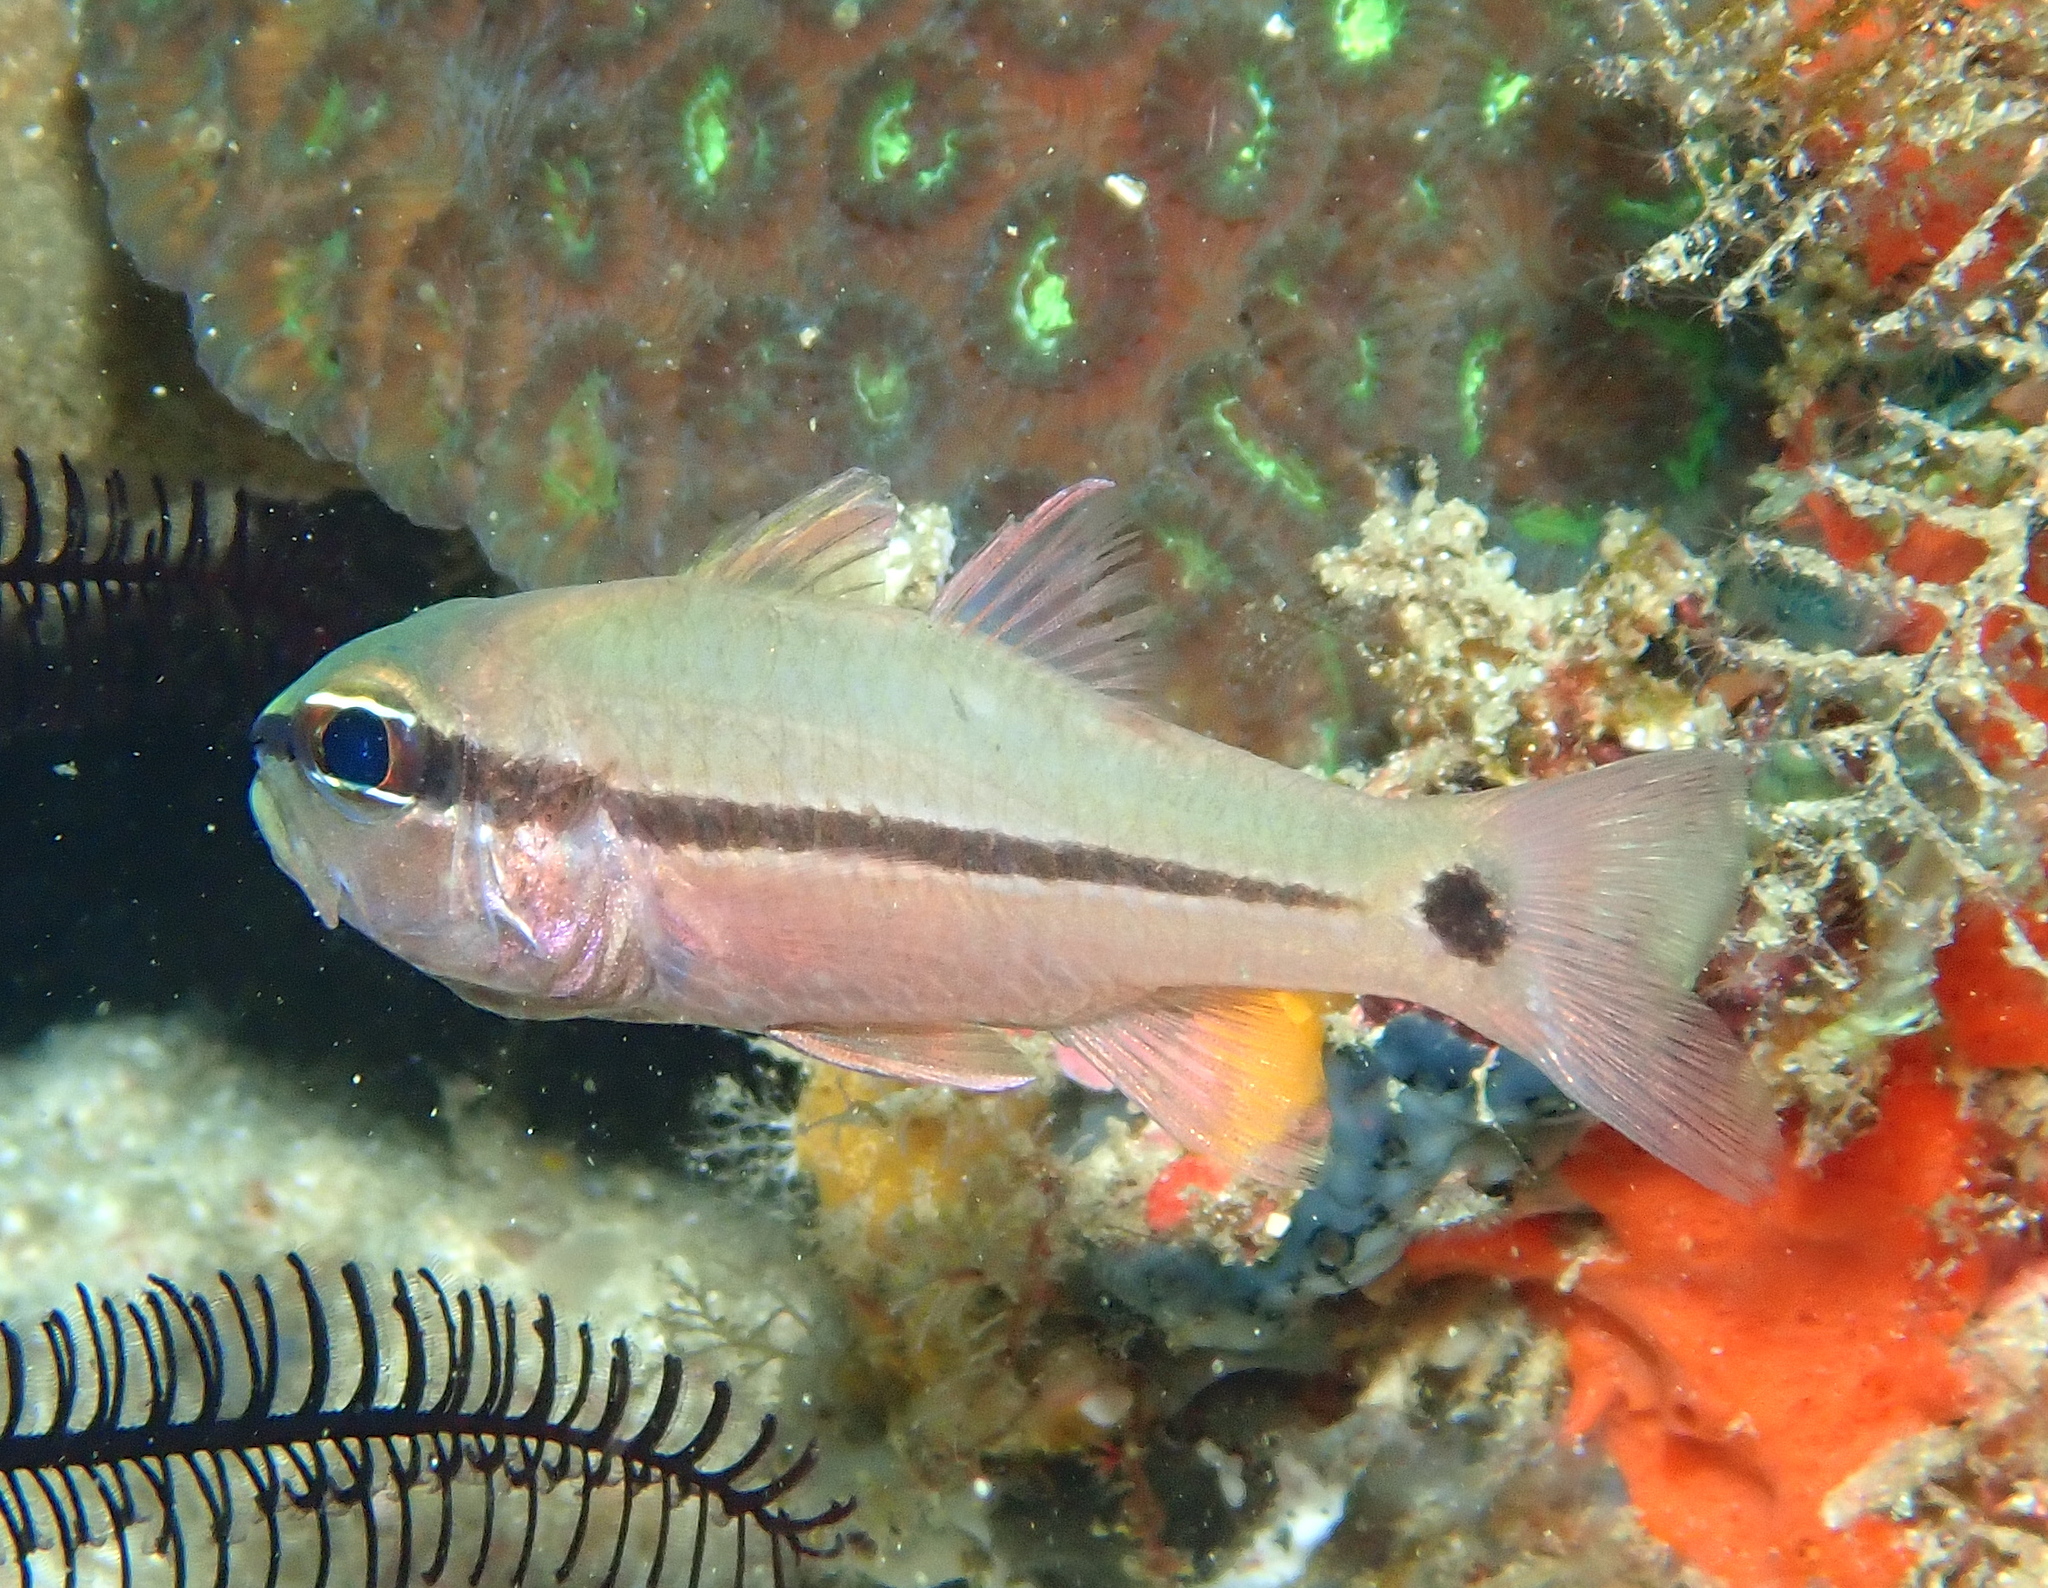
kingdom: Animalia
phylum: Chordata
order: Perciformes
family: Apogonidae
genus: Pristiapogon
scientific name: Pristiapogon fraenatus
